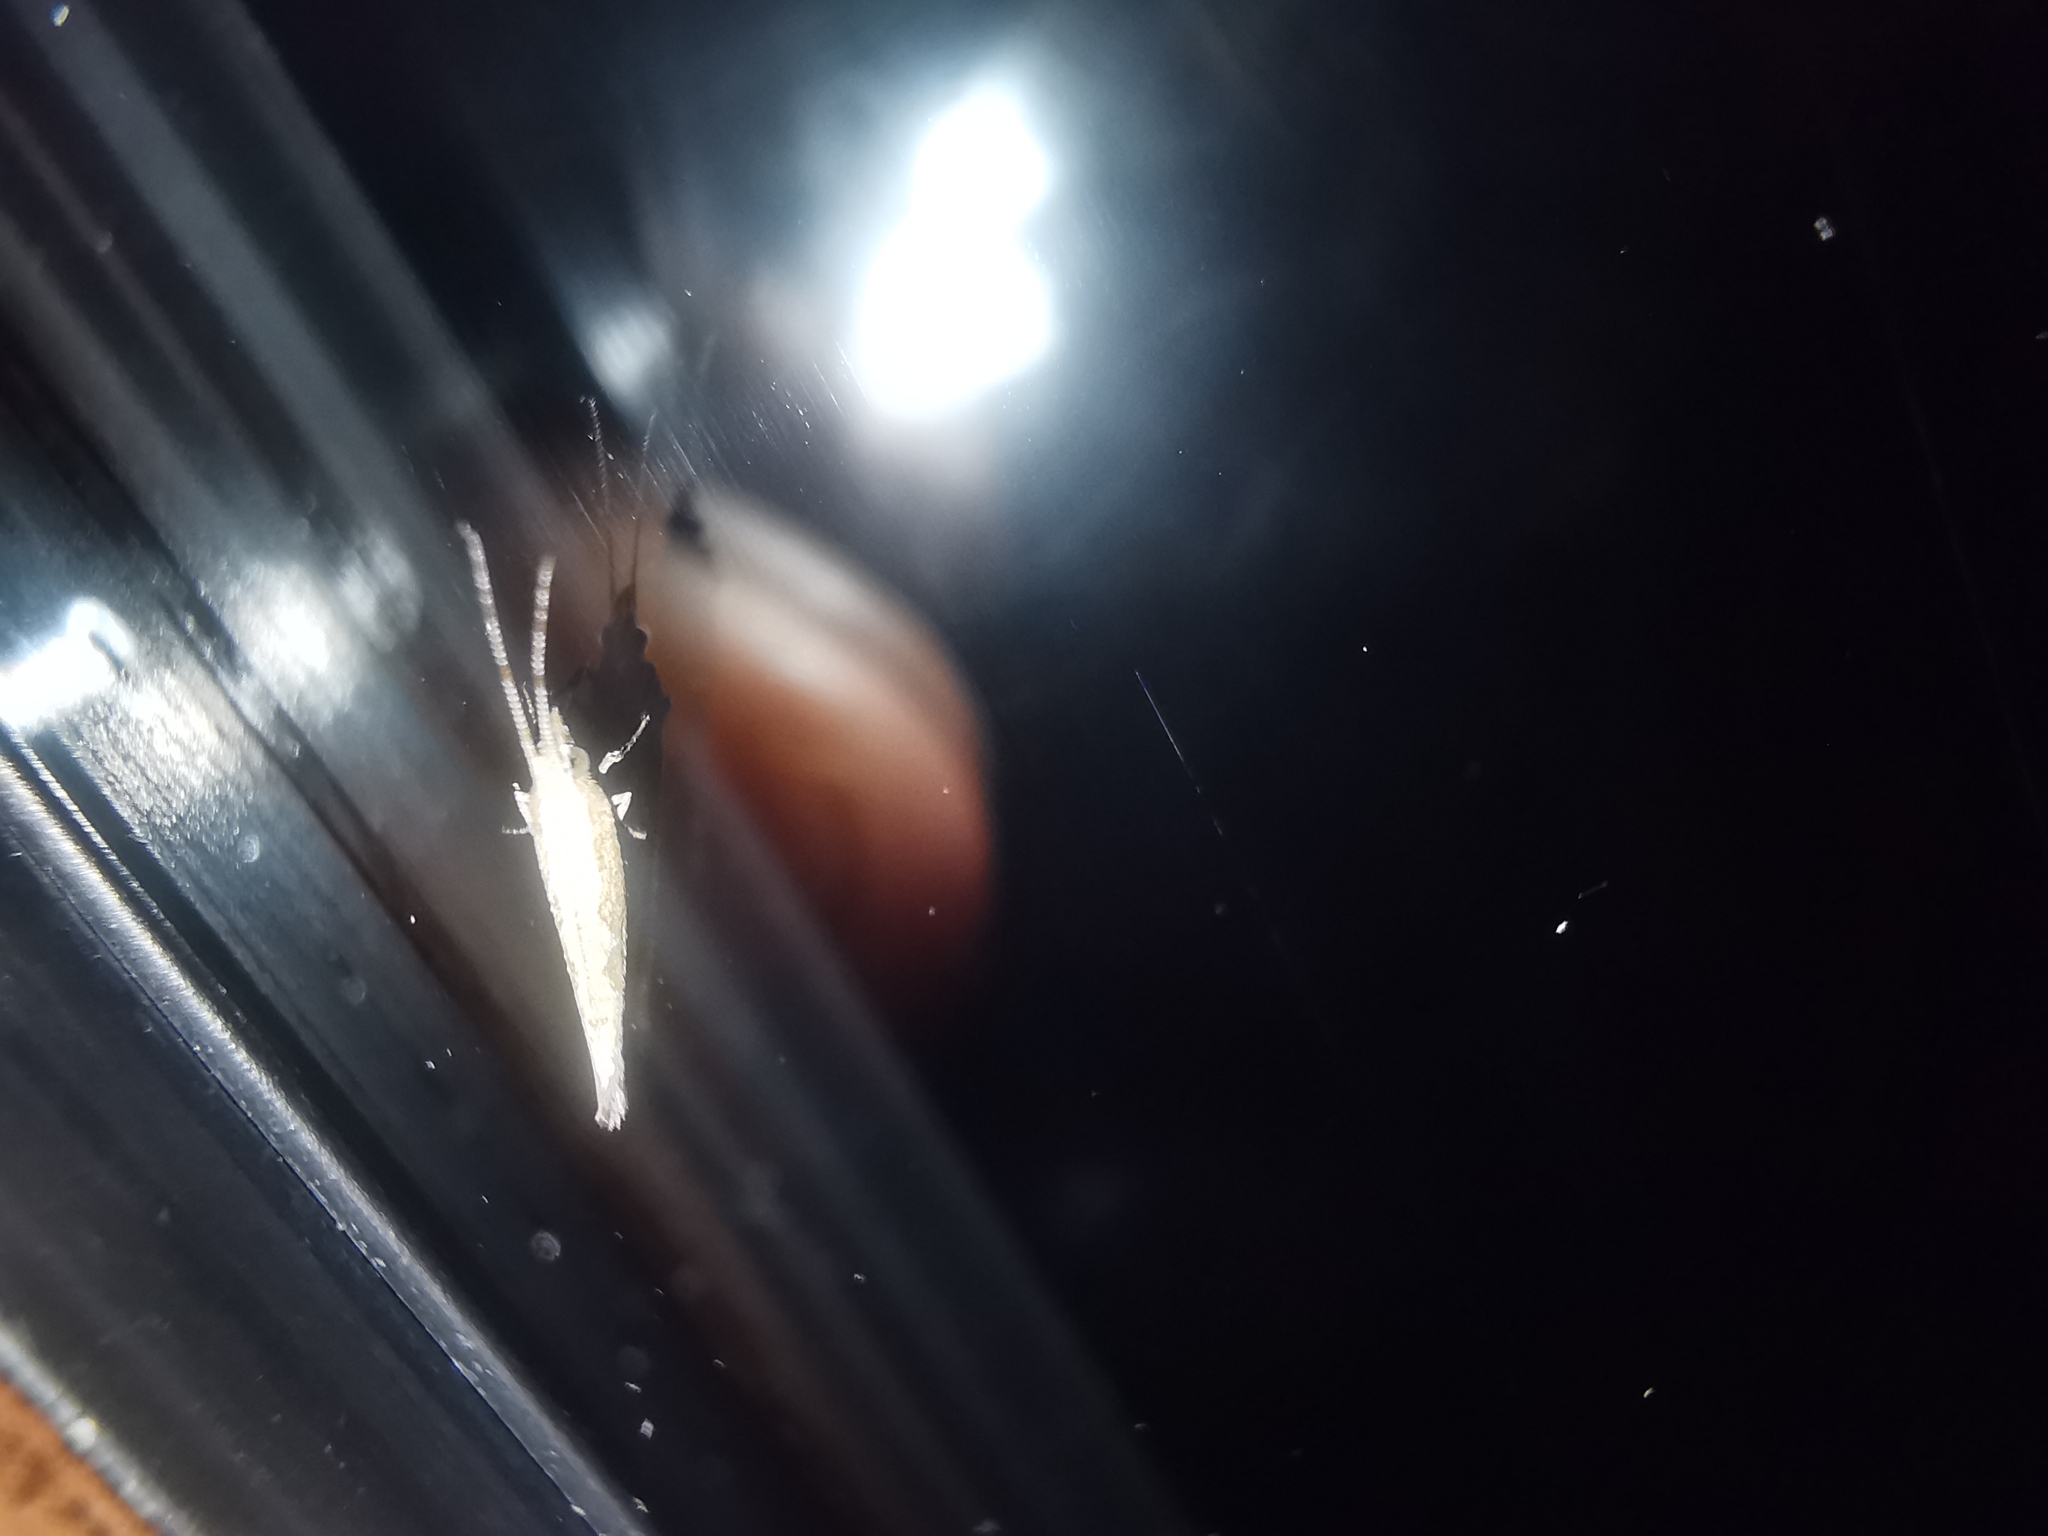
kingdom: Animalia
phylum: Arthropoda
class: Insecta
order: Lepidoptera
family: Plutellidae
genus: Plutella
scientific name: Plutella xylostella
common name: Diamond-back moth
